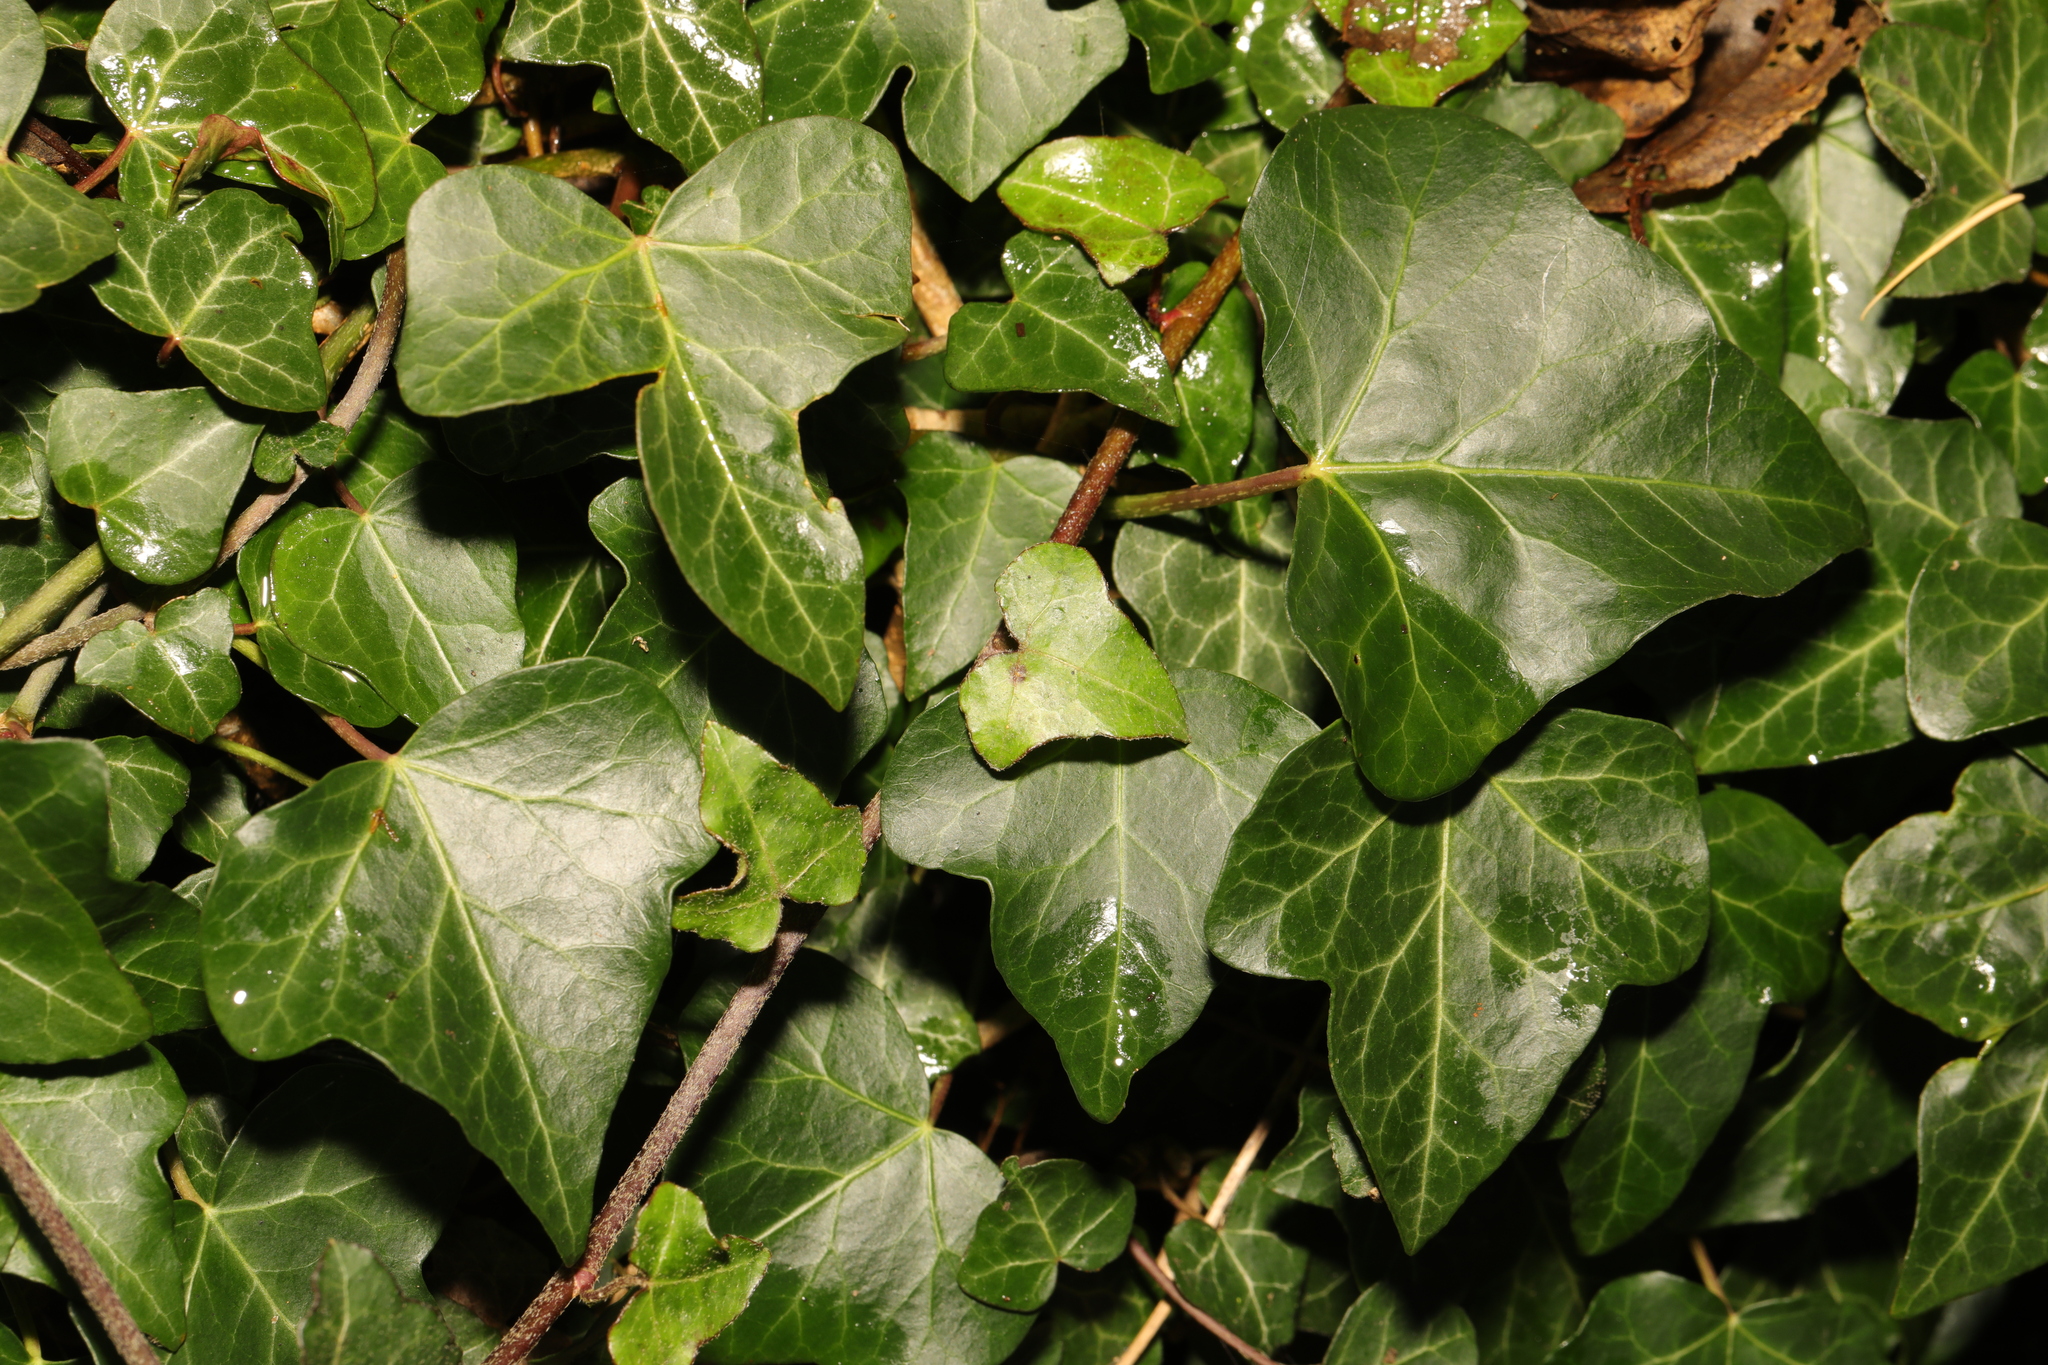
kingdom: Plantae
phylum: Tracheophyta
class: Magnoliopsida
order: Apiales
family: Araliaceae
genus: Hedera
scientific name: Hedera helix
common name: Ivy
